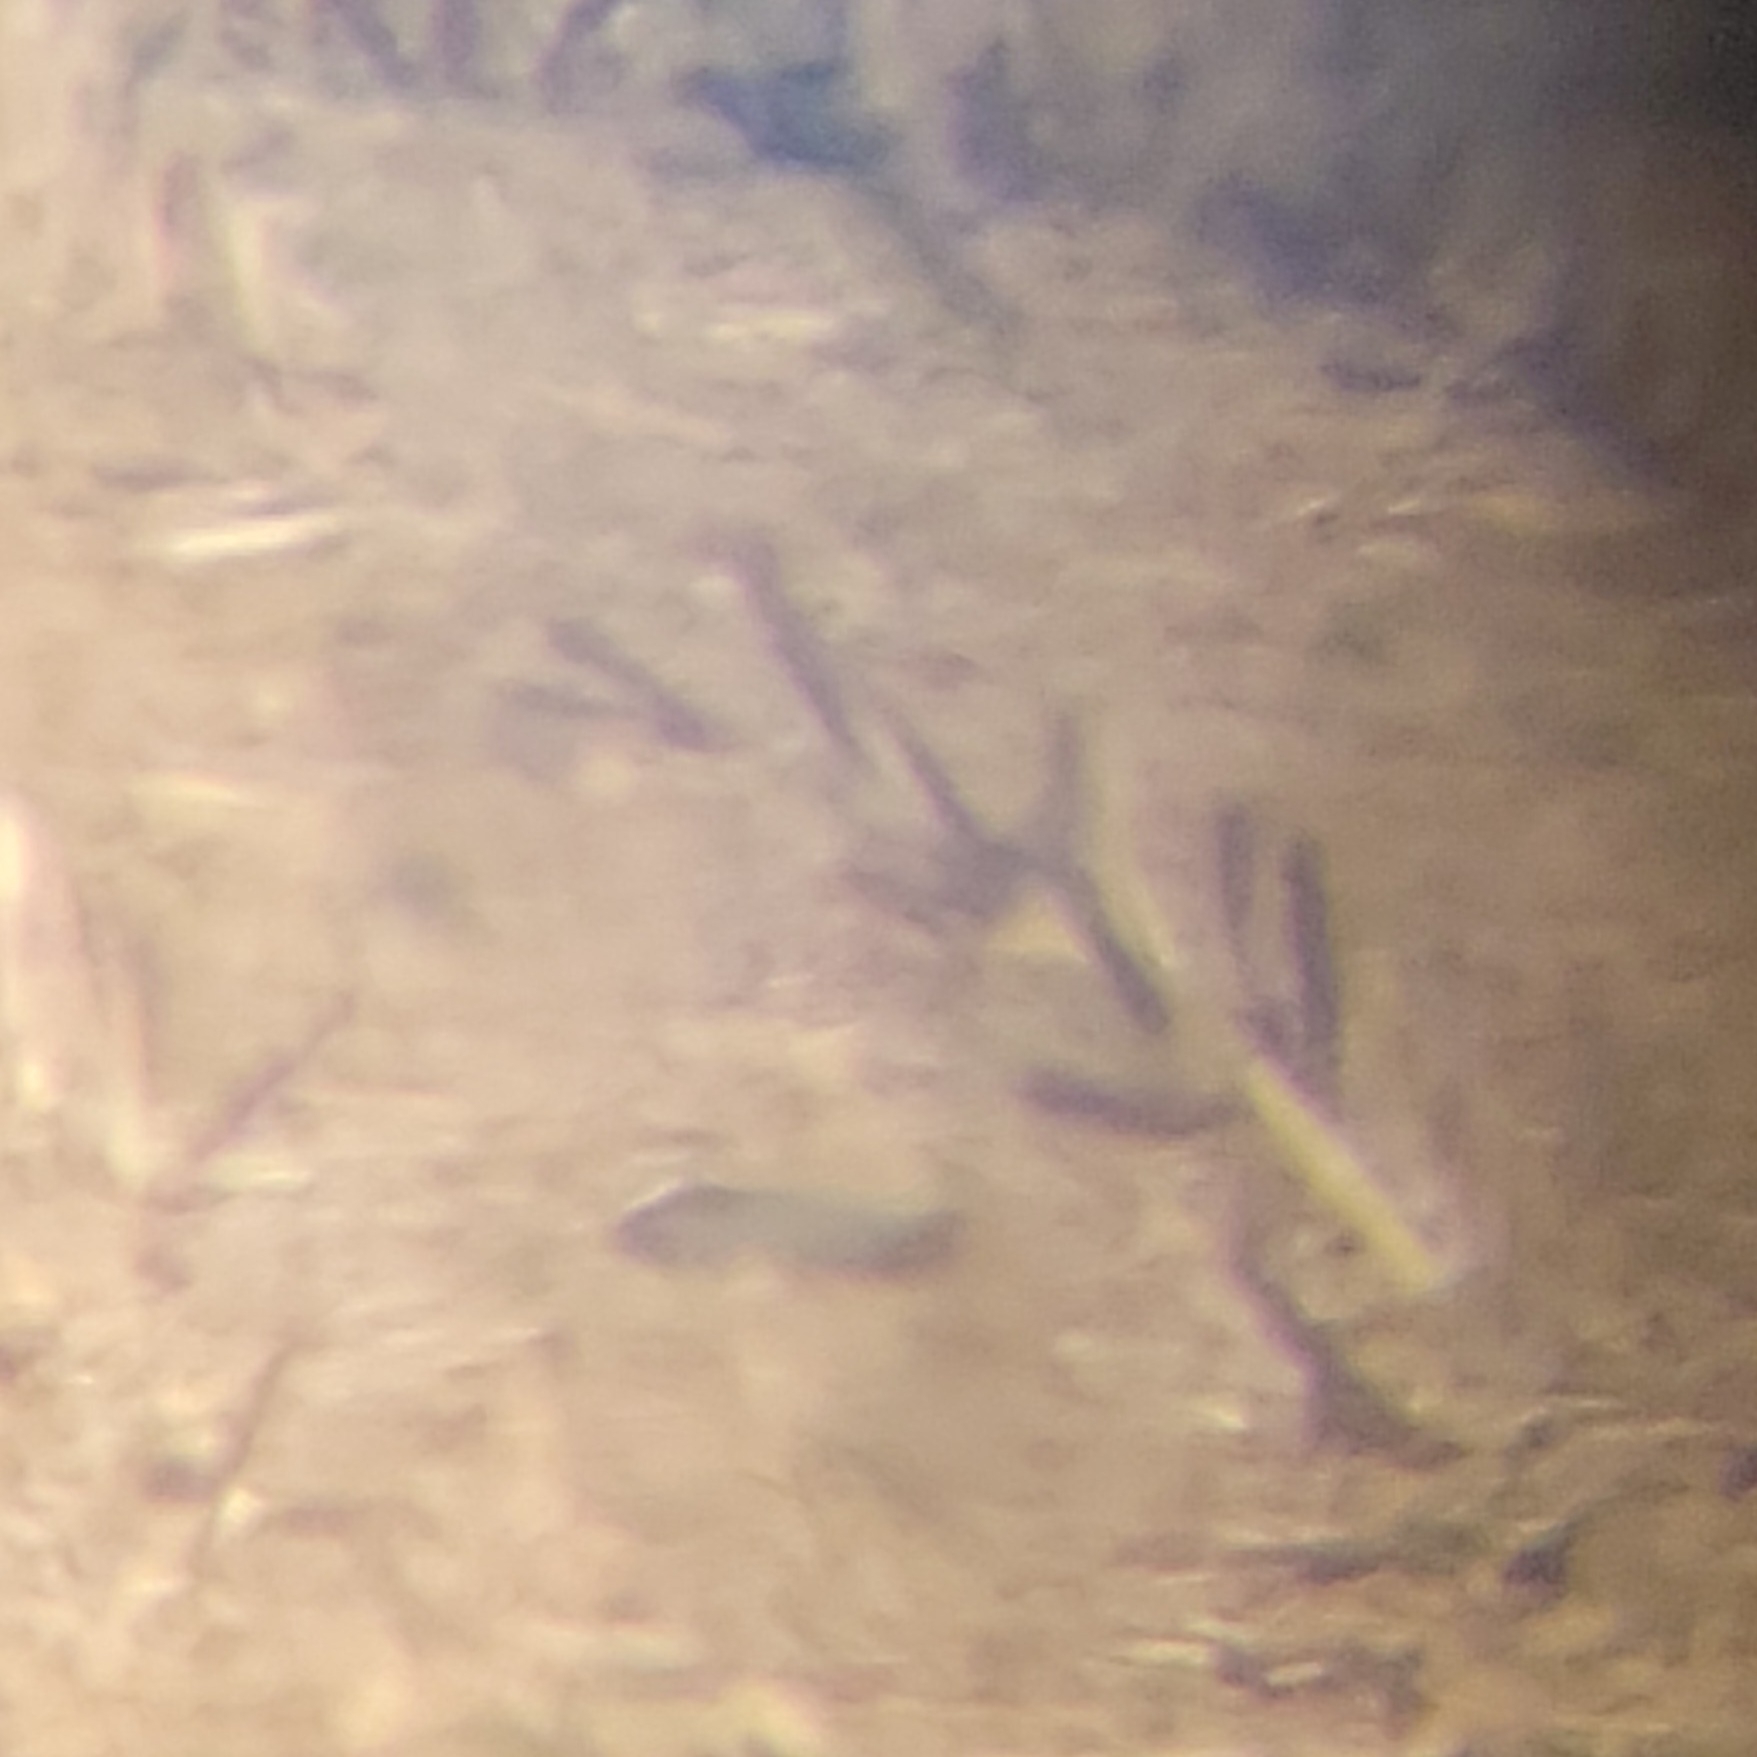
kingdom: Animalia
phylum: Chordata
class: Aves
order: Charadriiformes
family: Charadriidae
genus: Vanellus
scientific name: Vanellus vanellus
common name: Northern lapwing
